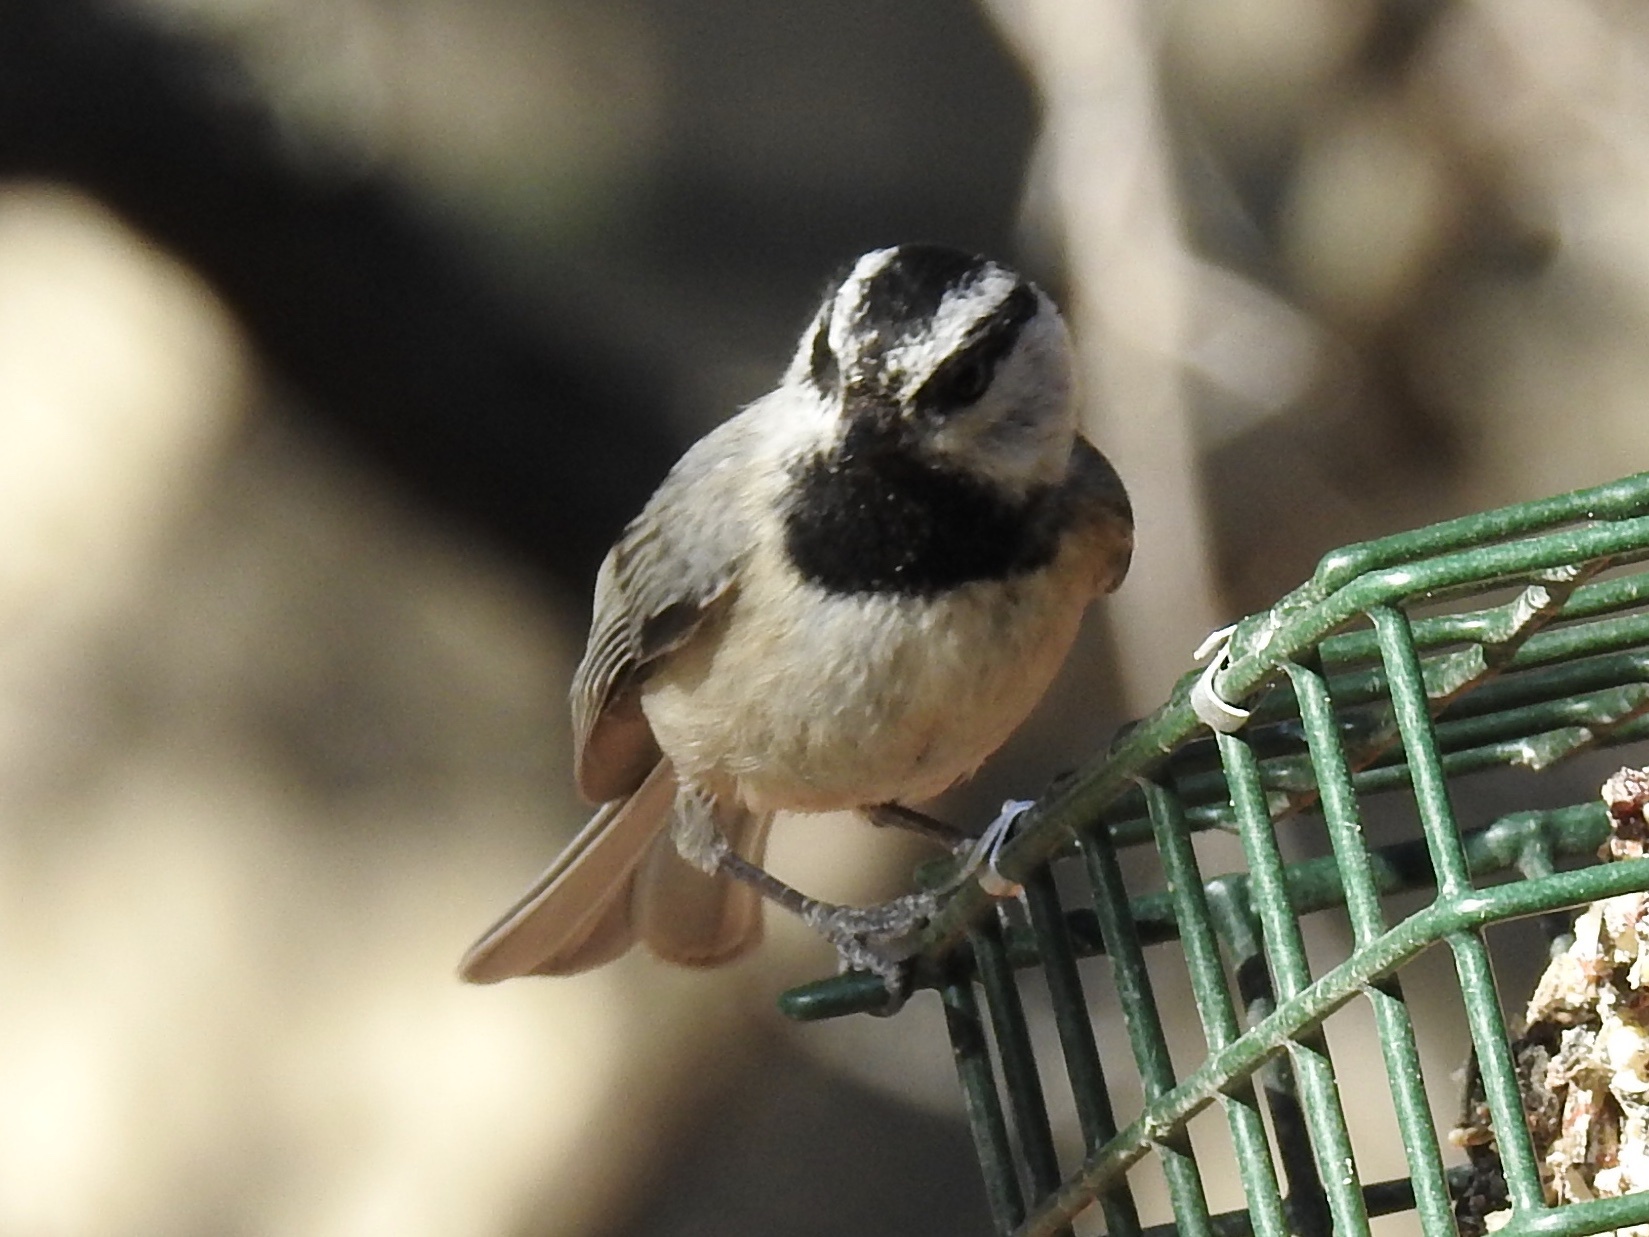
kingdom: Animalia
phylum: Chordata
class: Aves
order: Passeriformes
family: Paridae
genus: Poecile
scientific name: Poecile gambeli
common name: Mountain chickadee
